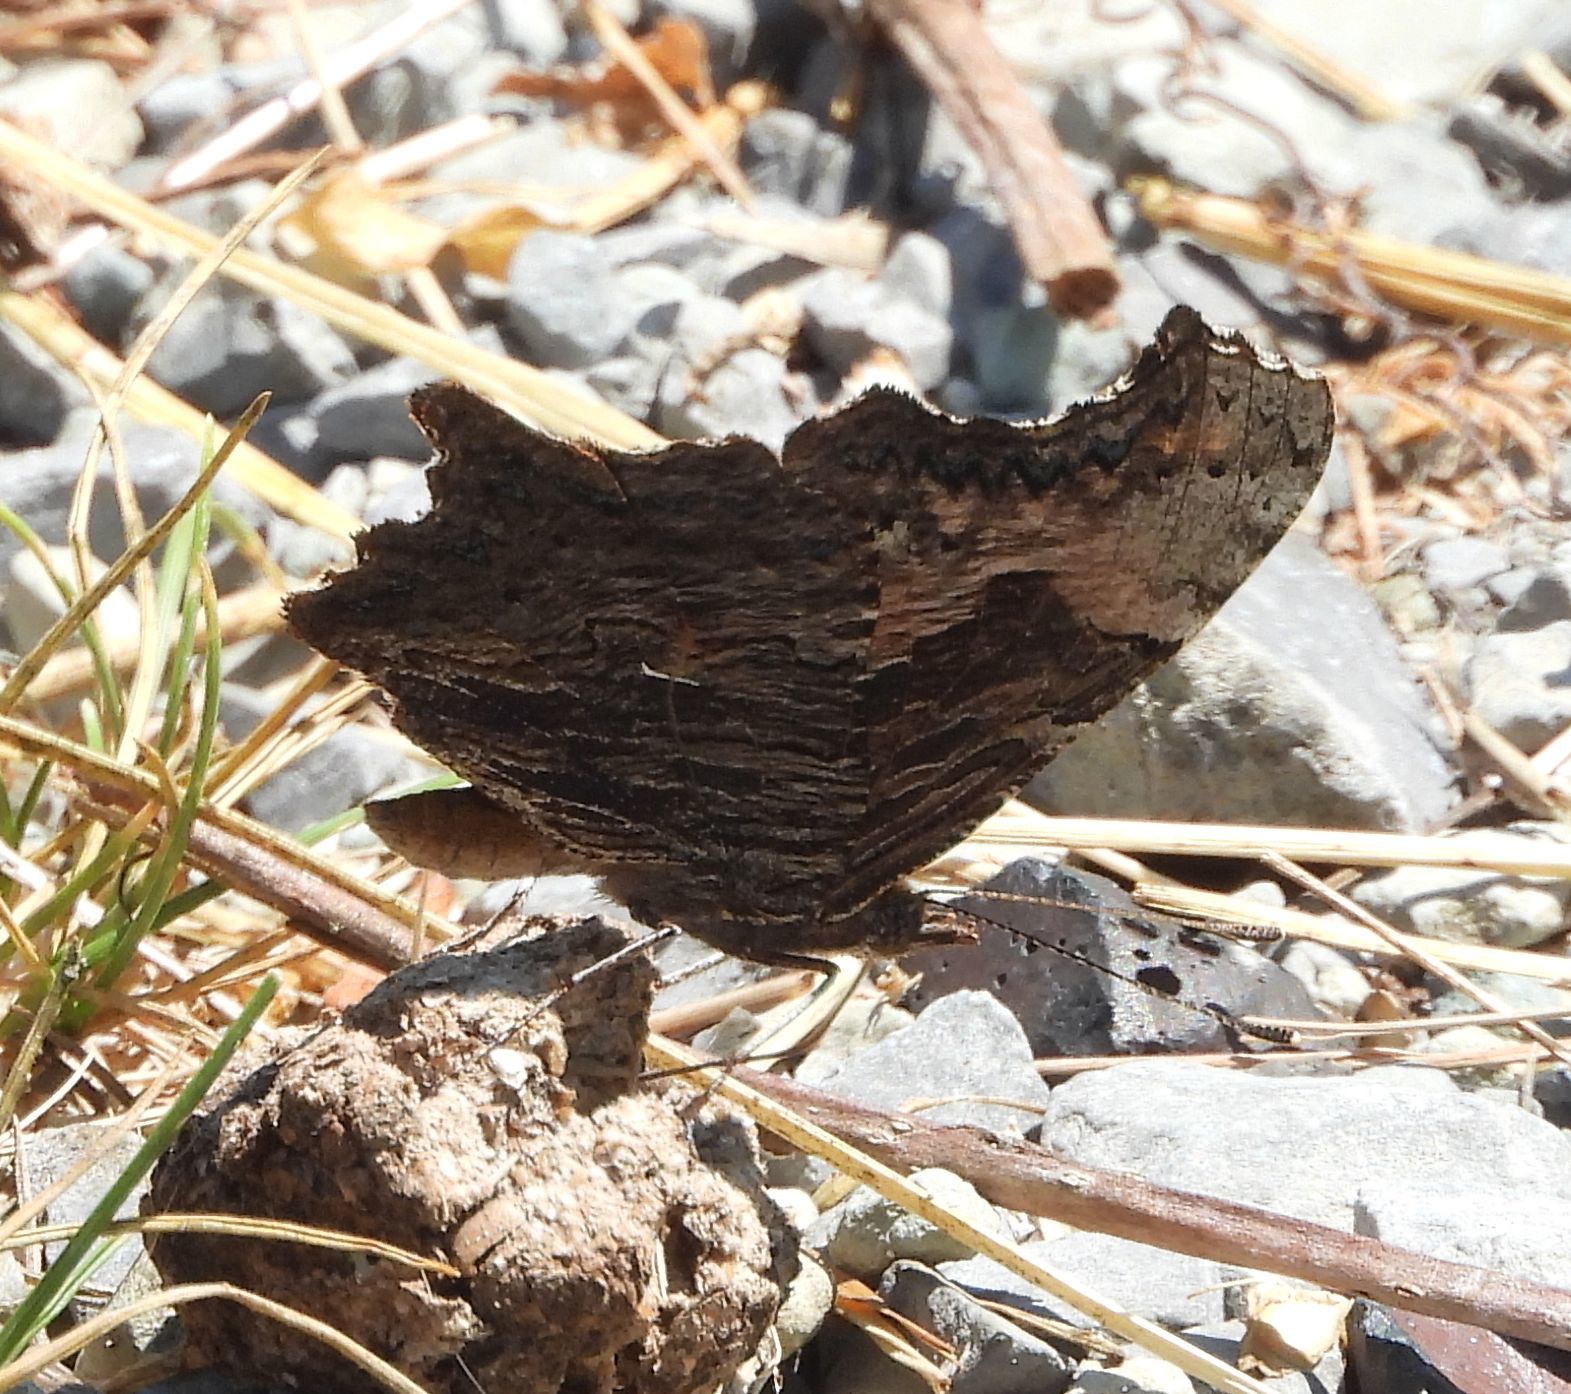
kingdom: Animalia
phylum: Arthropoda
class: Insecta
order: Lepidoptera
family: Nymphalidae
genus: Polygonia
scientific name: Polygonia progne
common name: Gray comma
